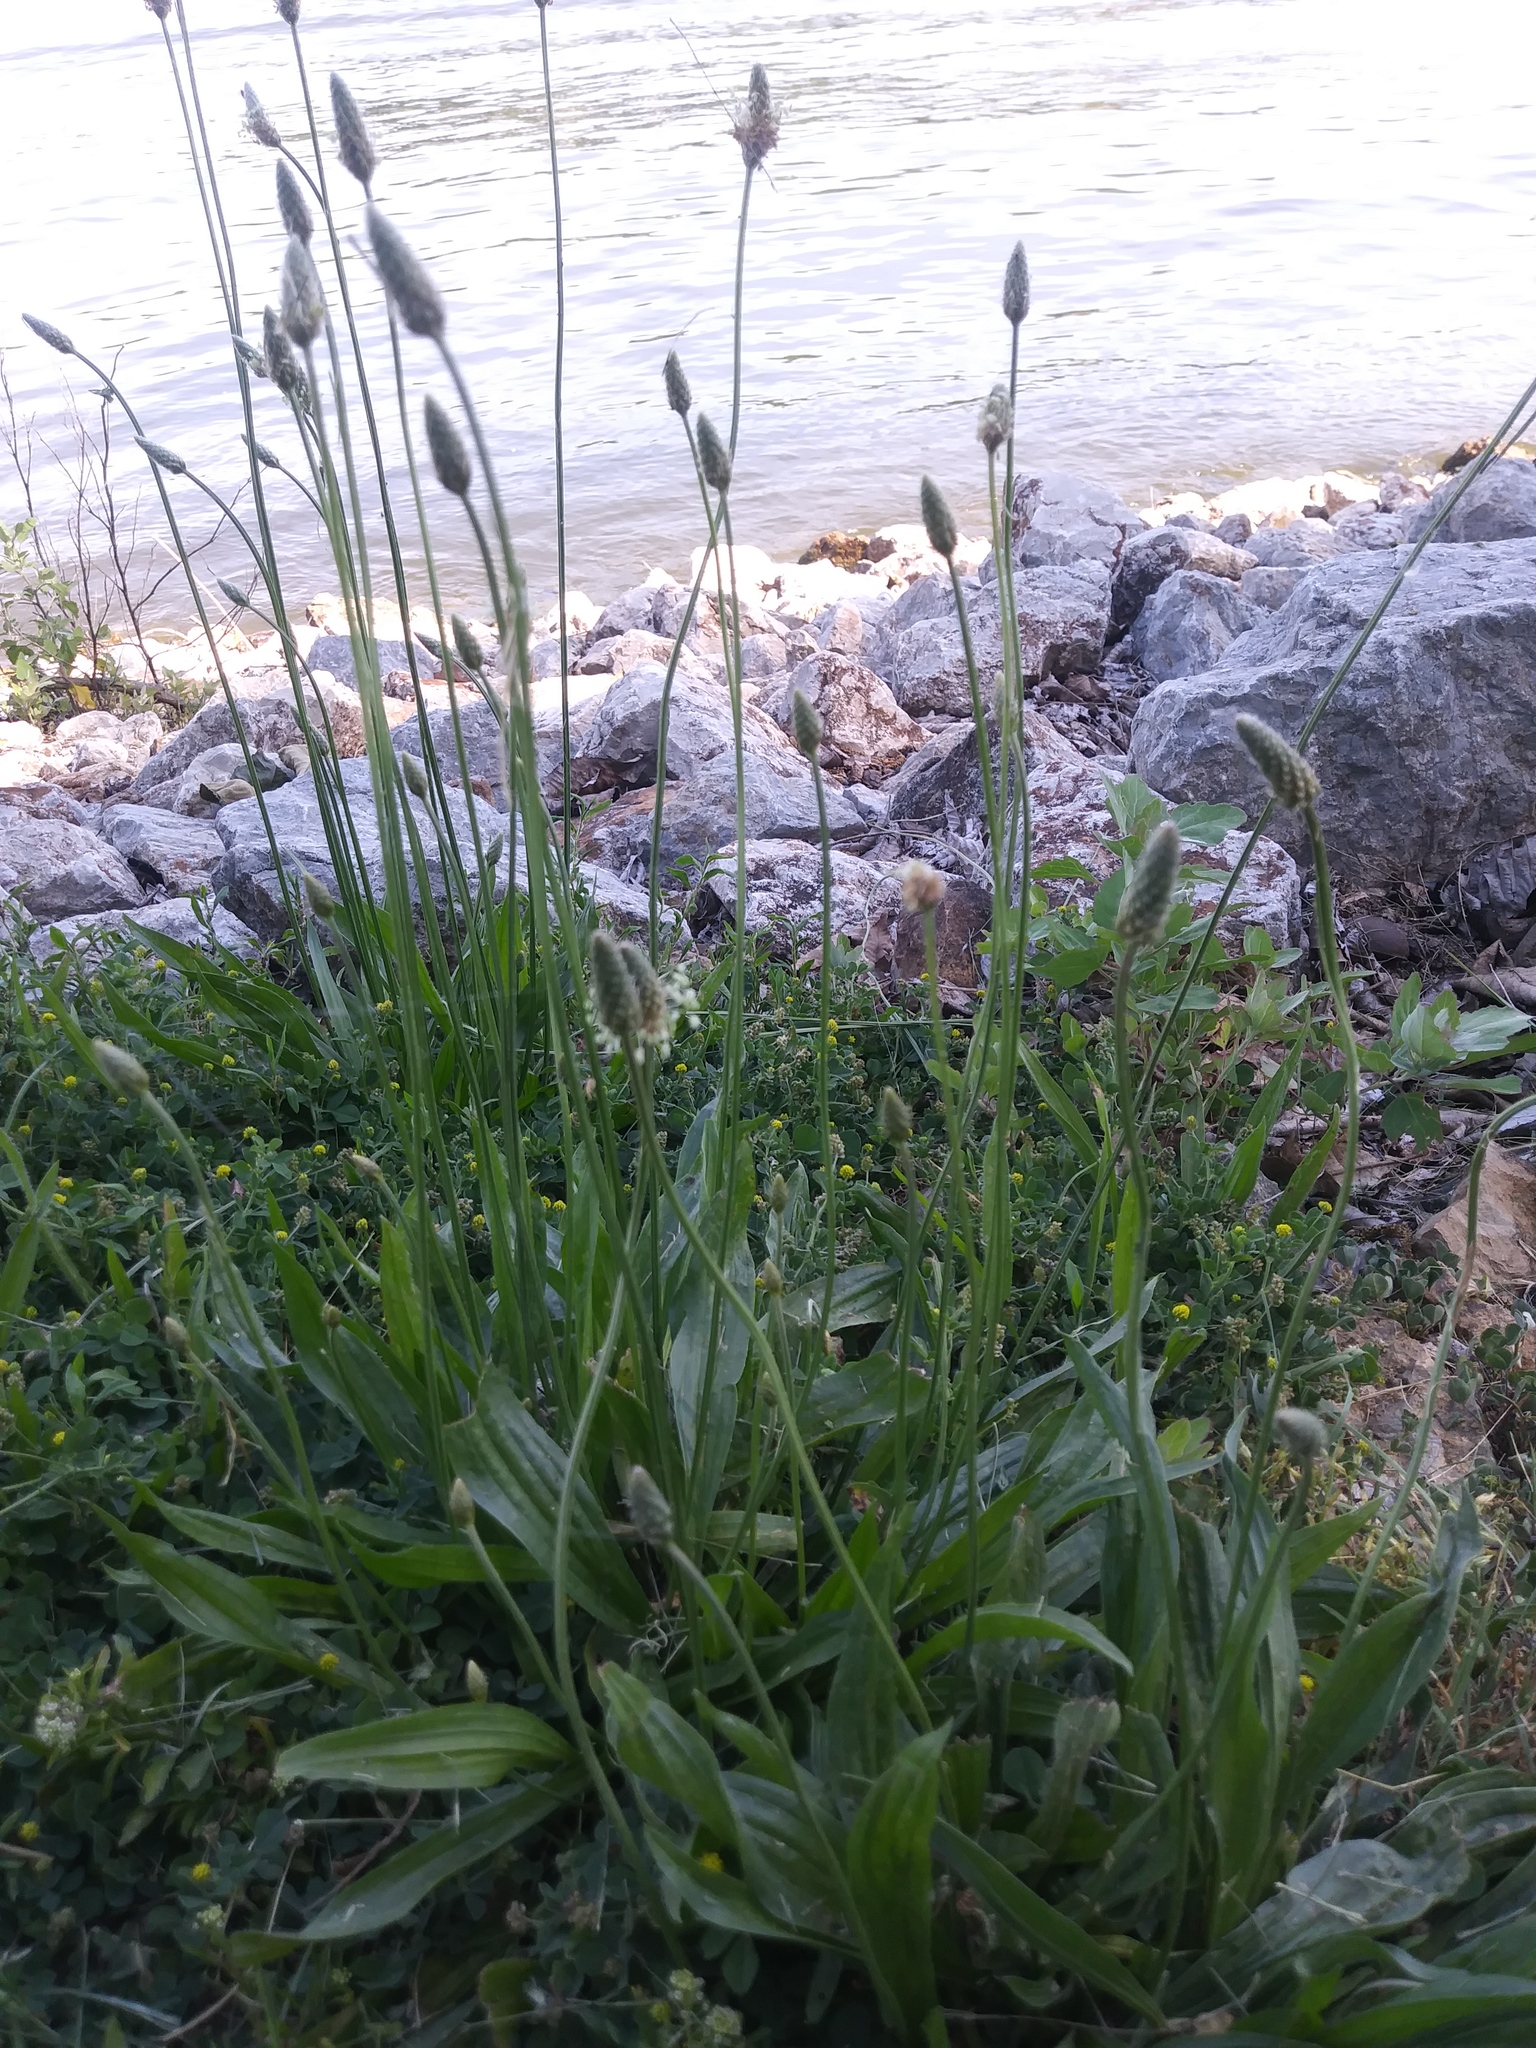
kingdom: Plantae
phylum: Tracheophyta
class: Magnoliopsida
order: Lamiales
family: Plantaginaceae
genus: Plantago
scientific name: Plantago lanceolata
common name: Ribwort plantain
